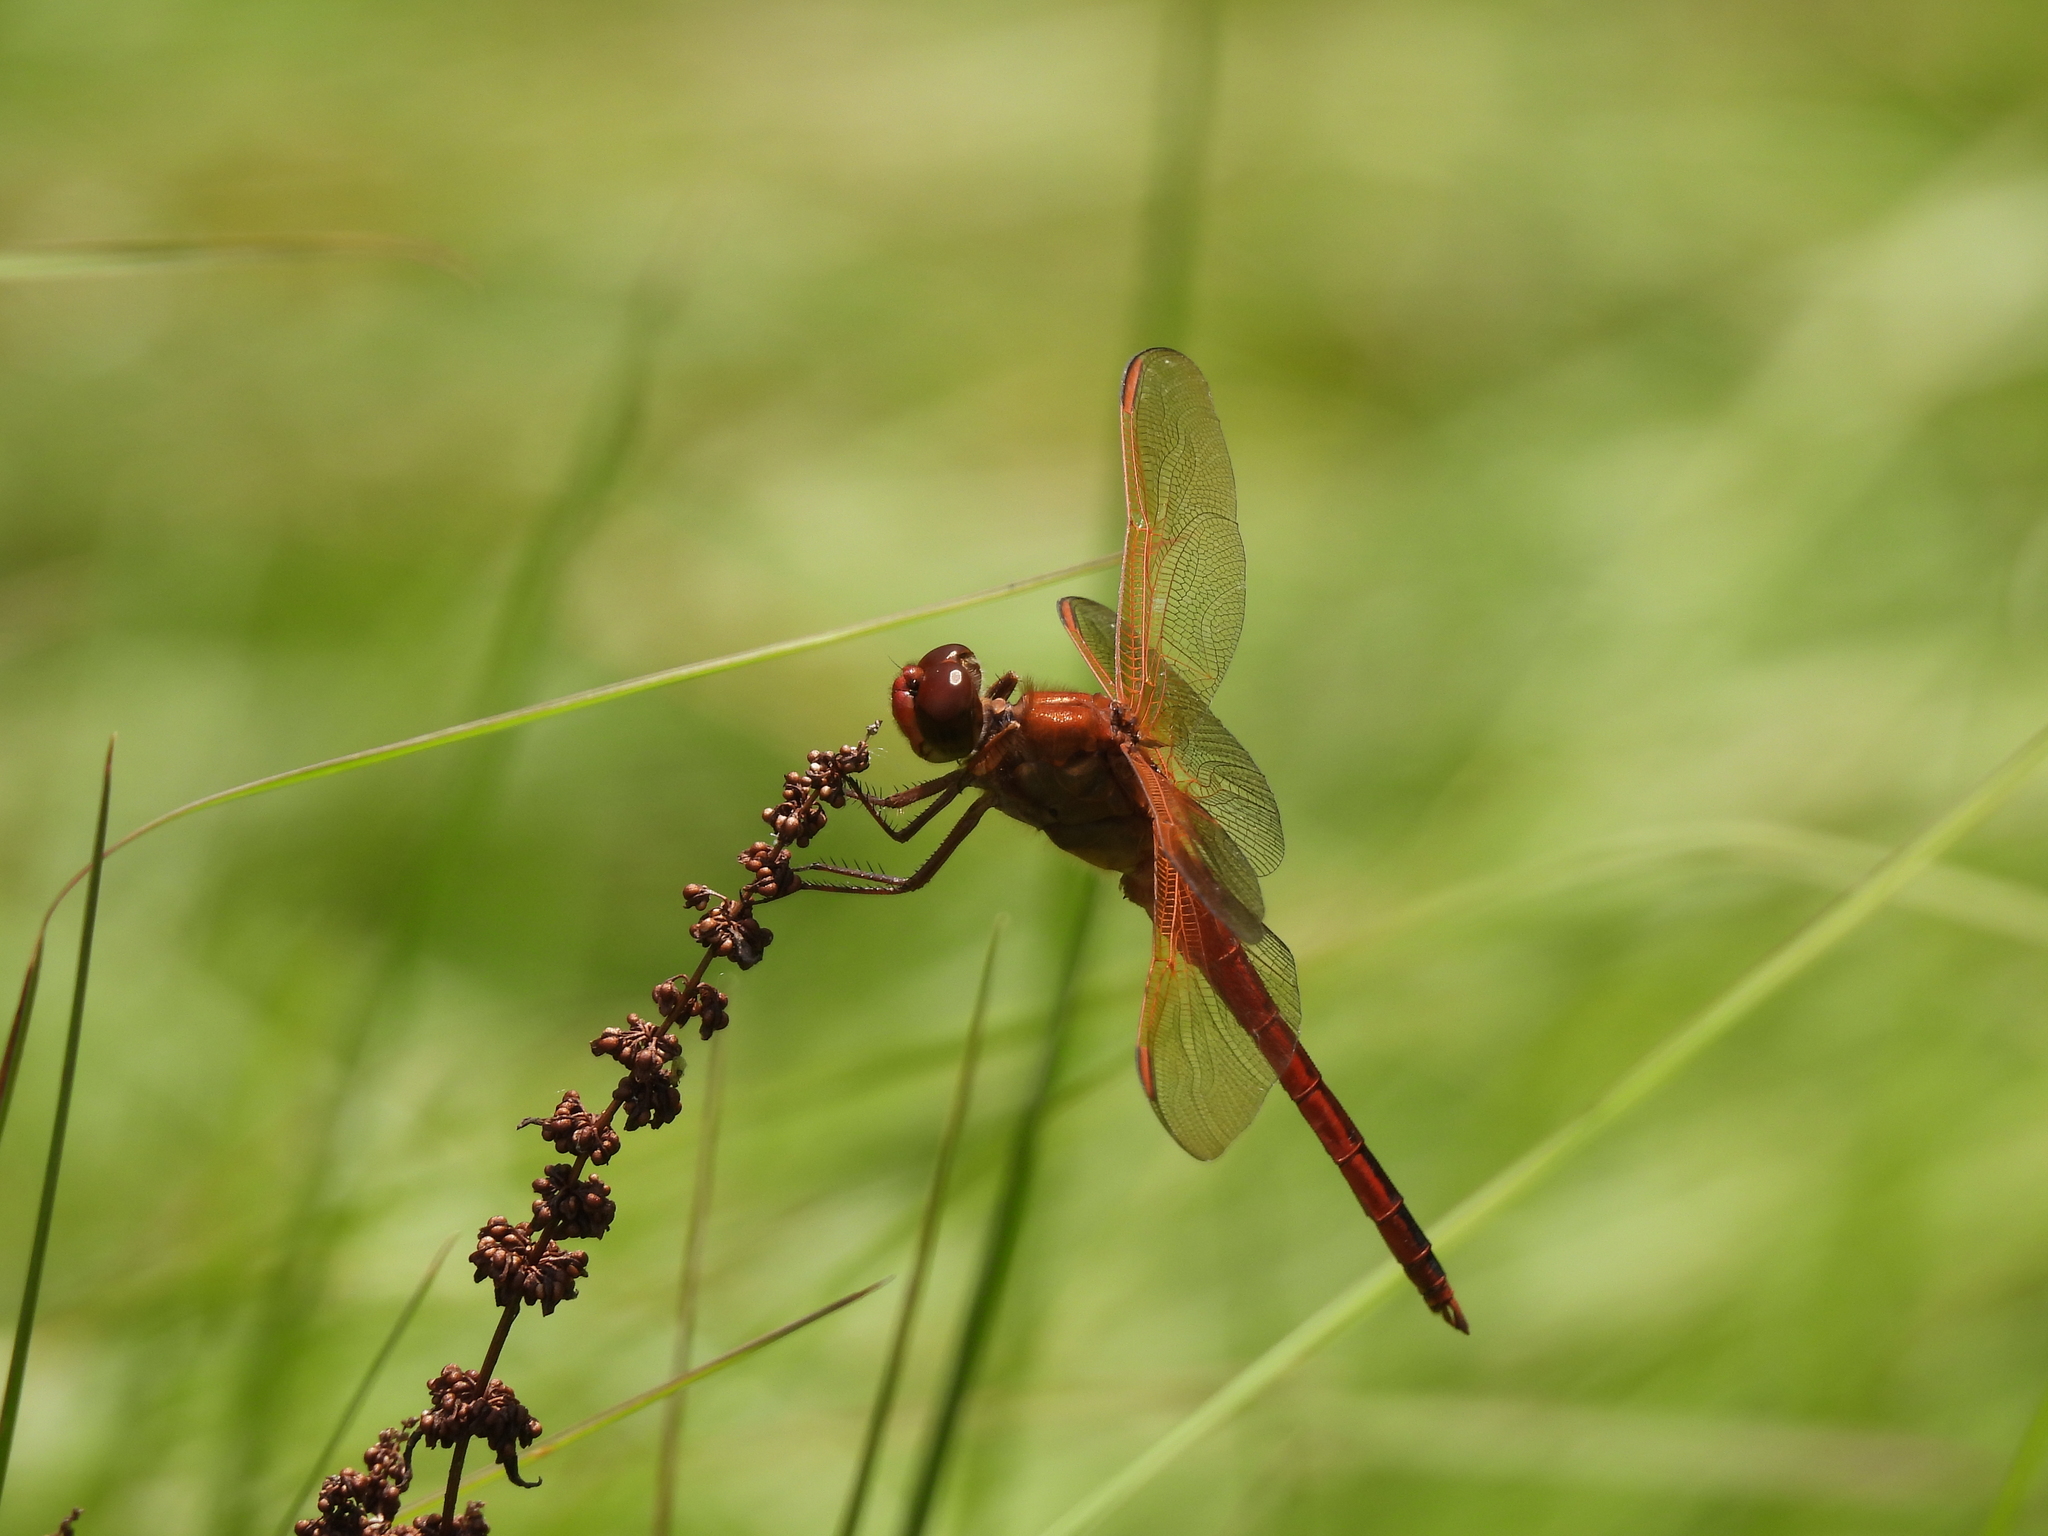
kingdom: Animalia
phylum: Arthropoda
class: Insecta
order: Odonata
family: Libellulidae
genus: Libellula
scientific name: Libellula
